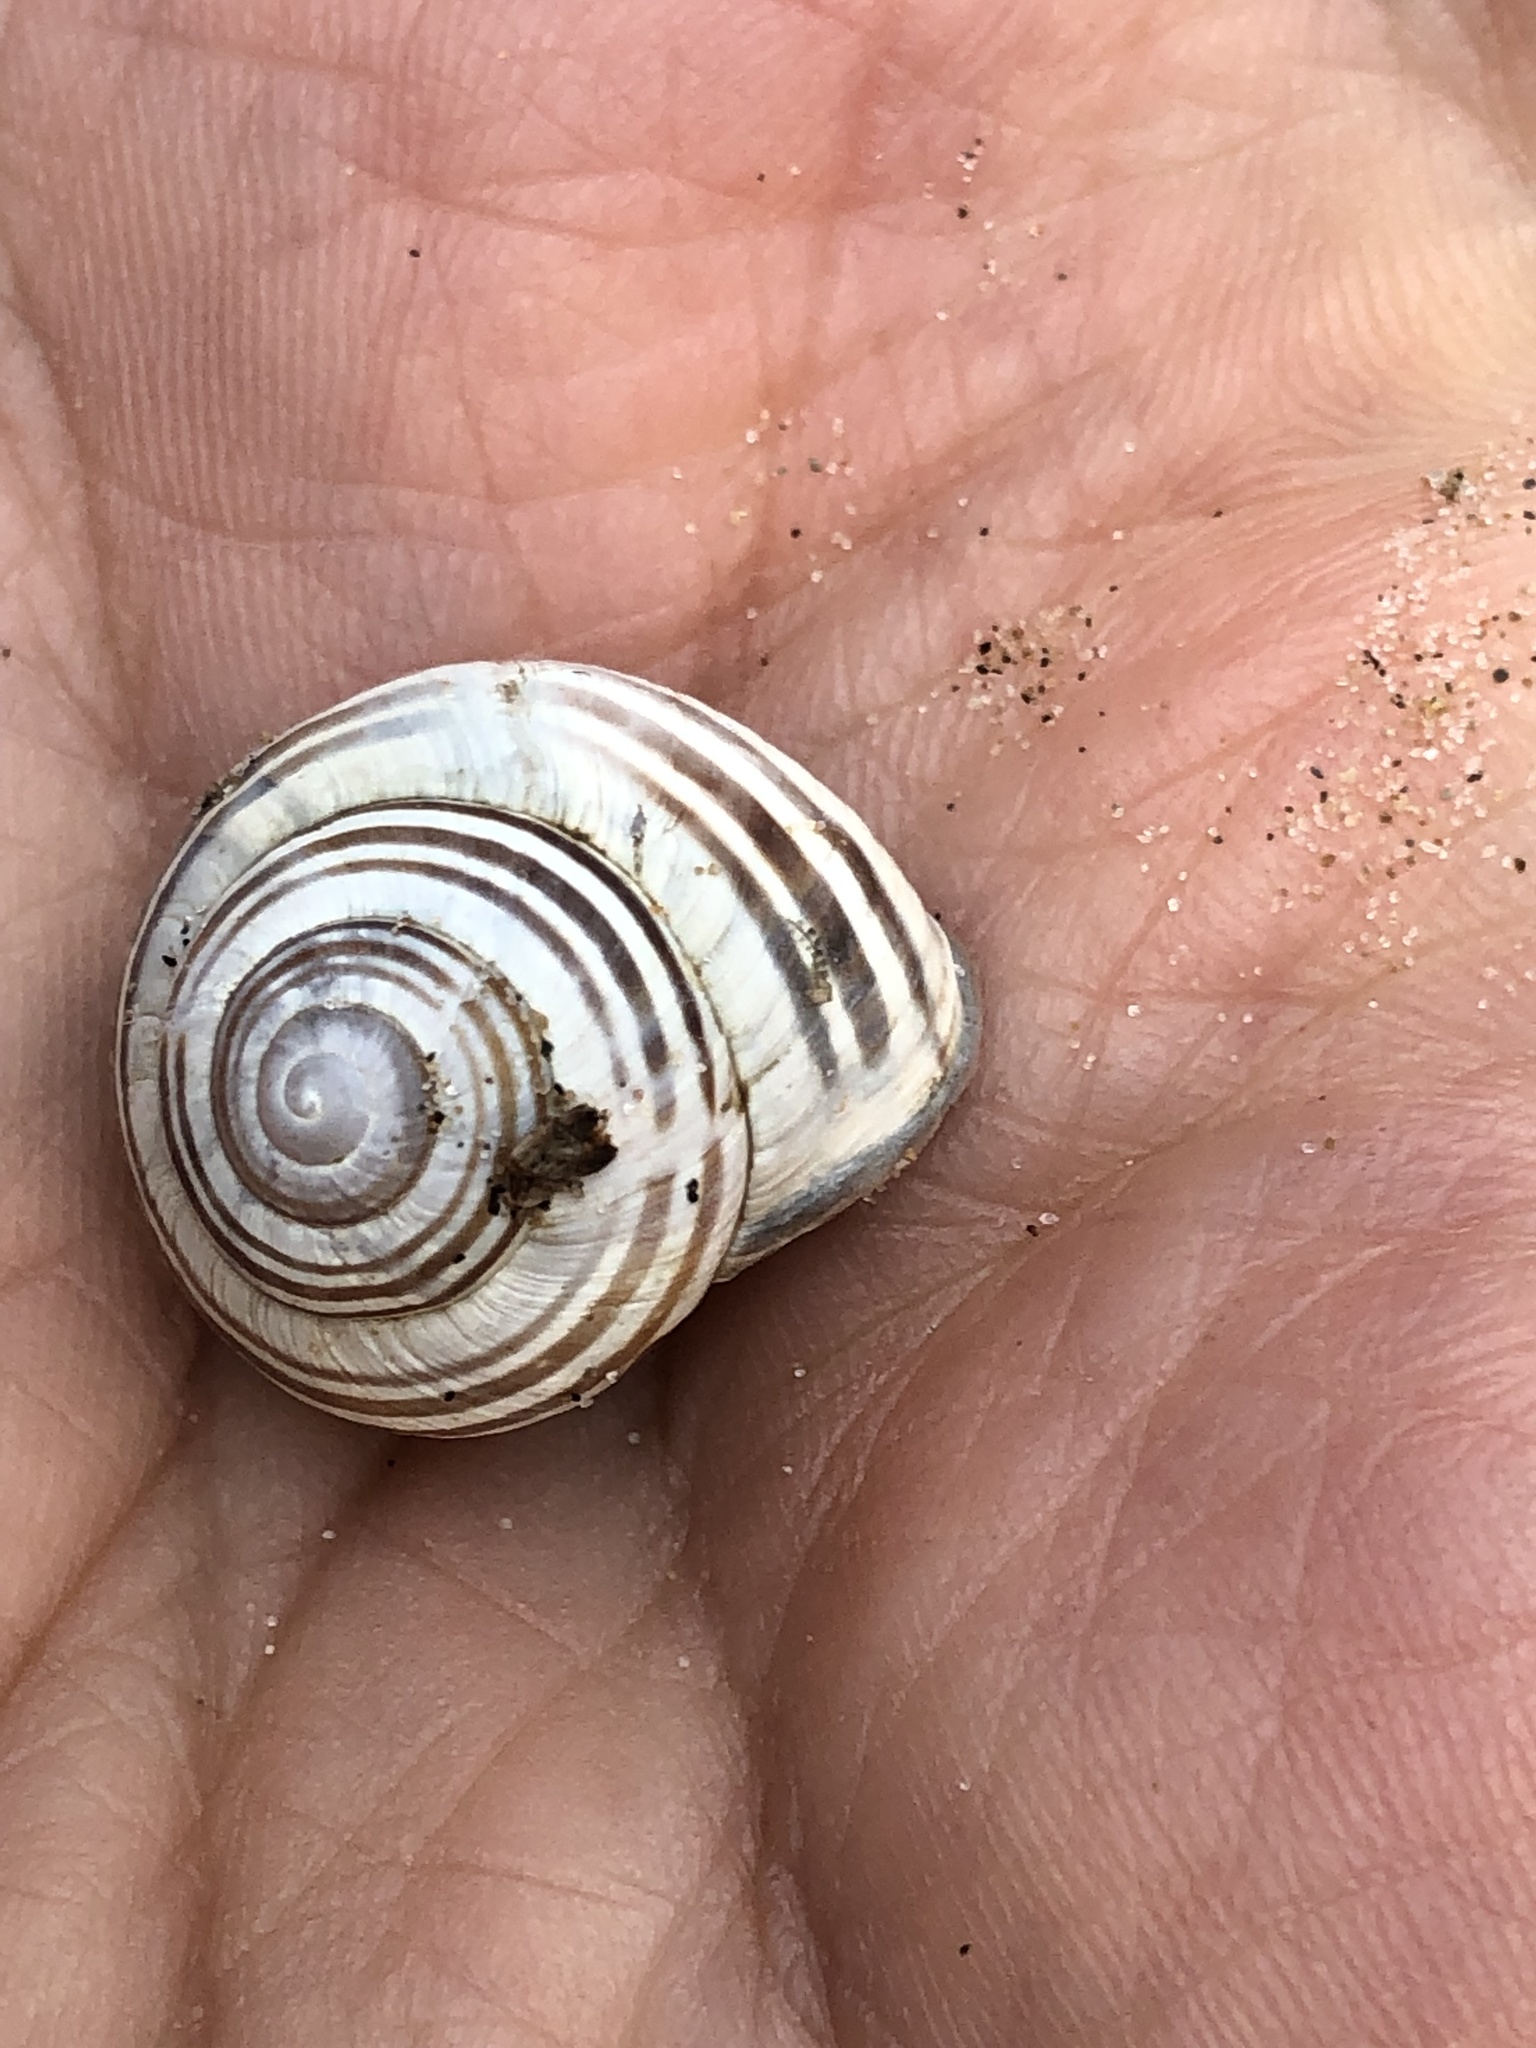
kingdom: Animalia
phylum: Mollusca
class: Gastropoda
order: Stylommatophora
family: Helicidae
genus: Cepaea
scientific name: Cepaea nemoralis
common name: Grovesnail
